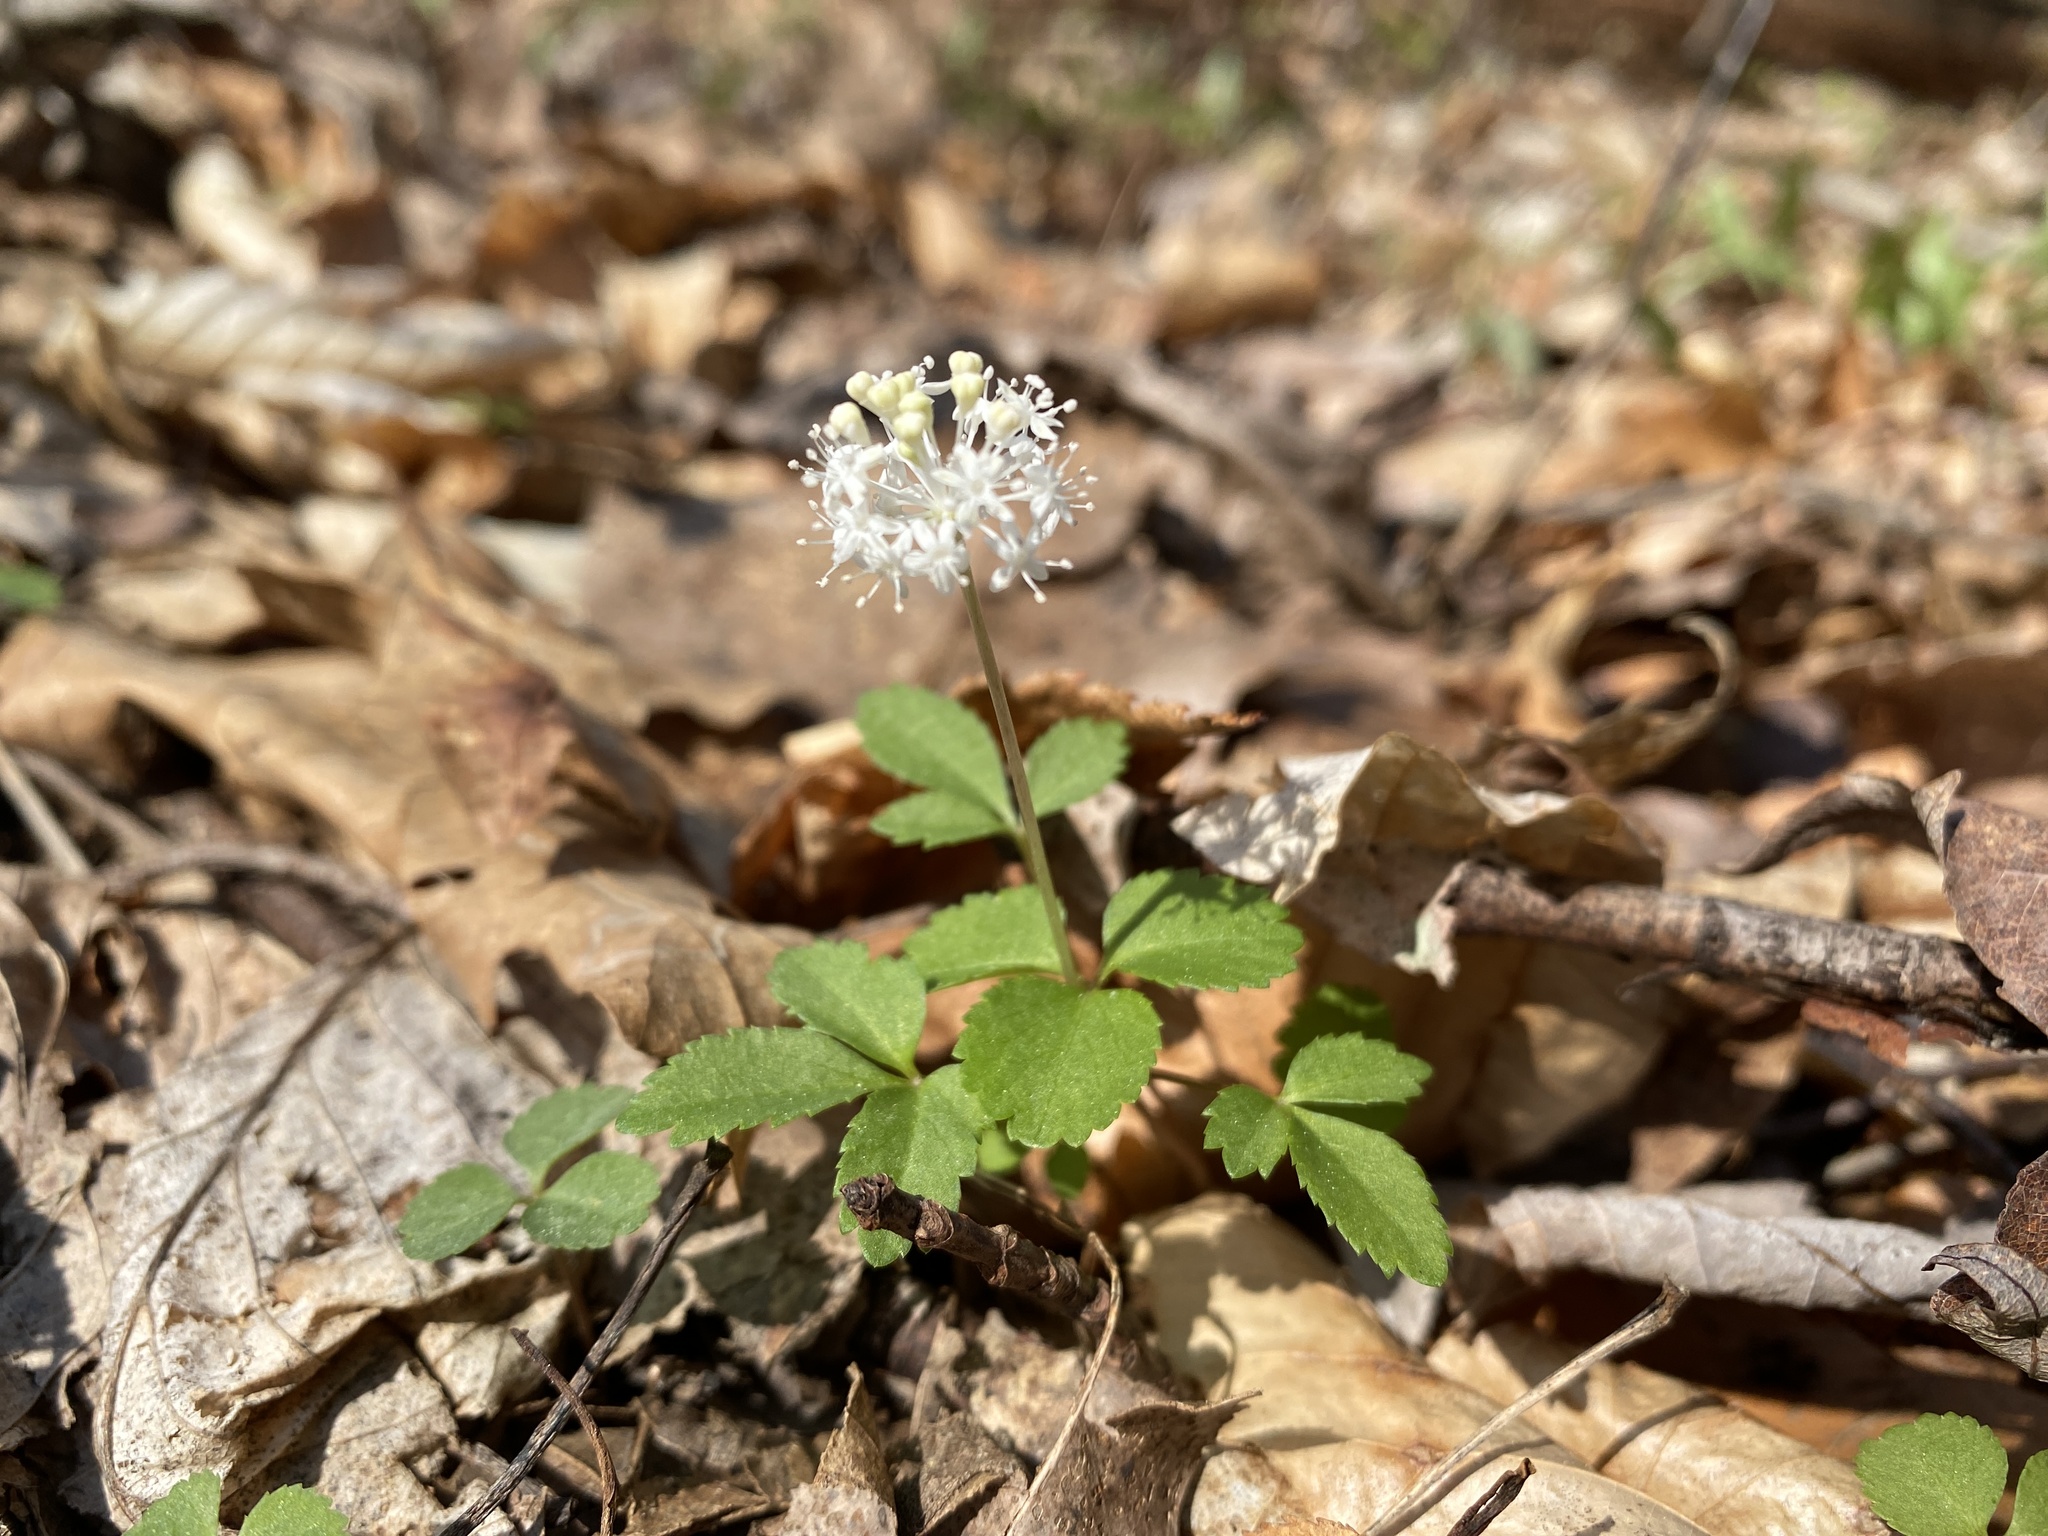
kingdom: Plantae
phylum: Tracheophyta
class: Magnoliopsida
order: Apiales
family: Araliaceae
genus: Panax
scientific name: Panax trifolius
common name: Dwarf ginseng
